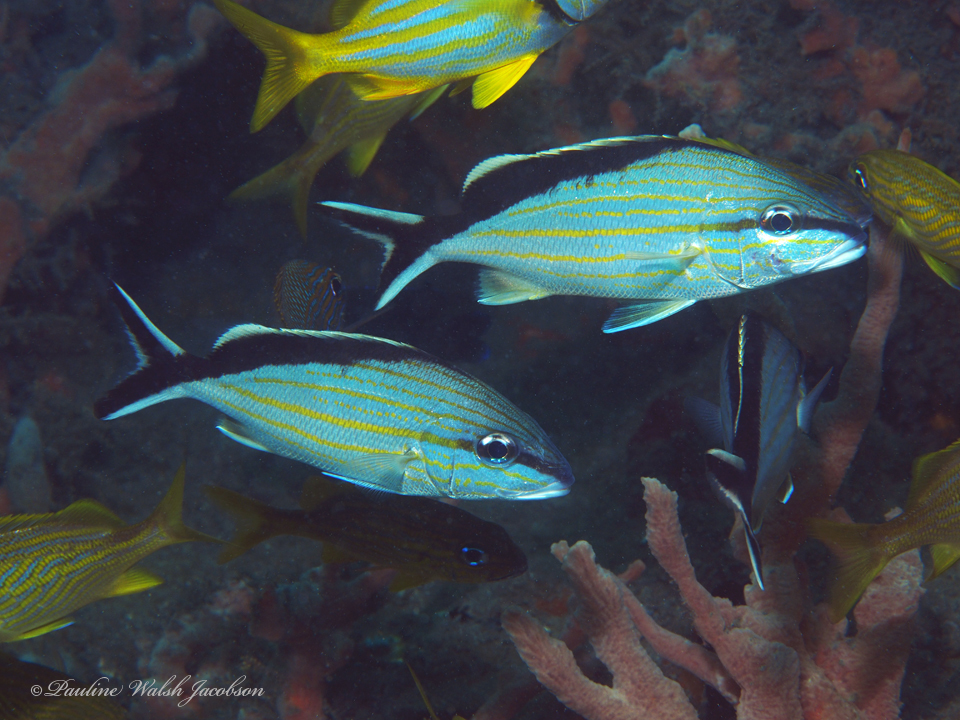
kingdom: Animalia
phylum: Chordata
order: Perciformes
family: Haemulidae
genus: Haemulon
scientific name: Haemulon melanurum
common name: Cottonwick
